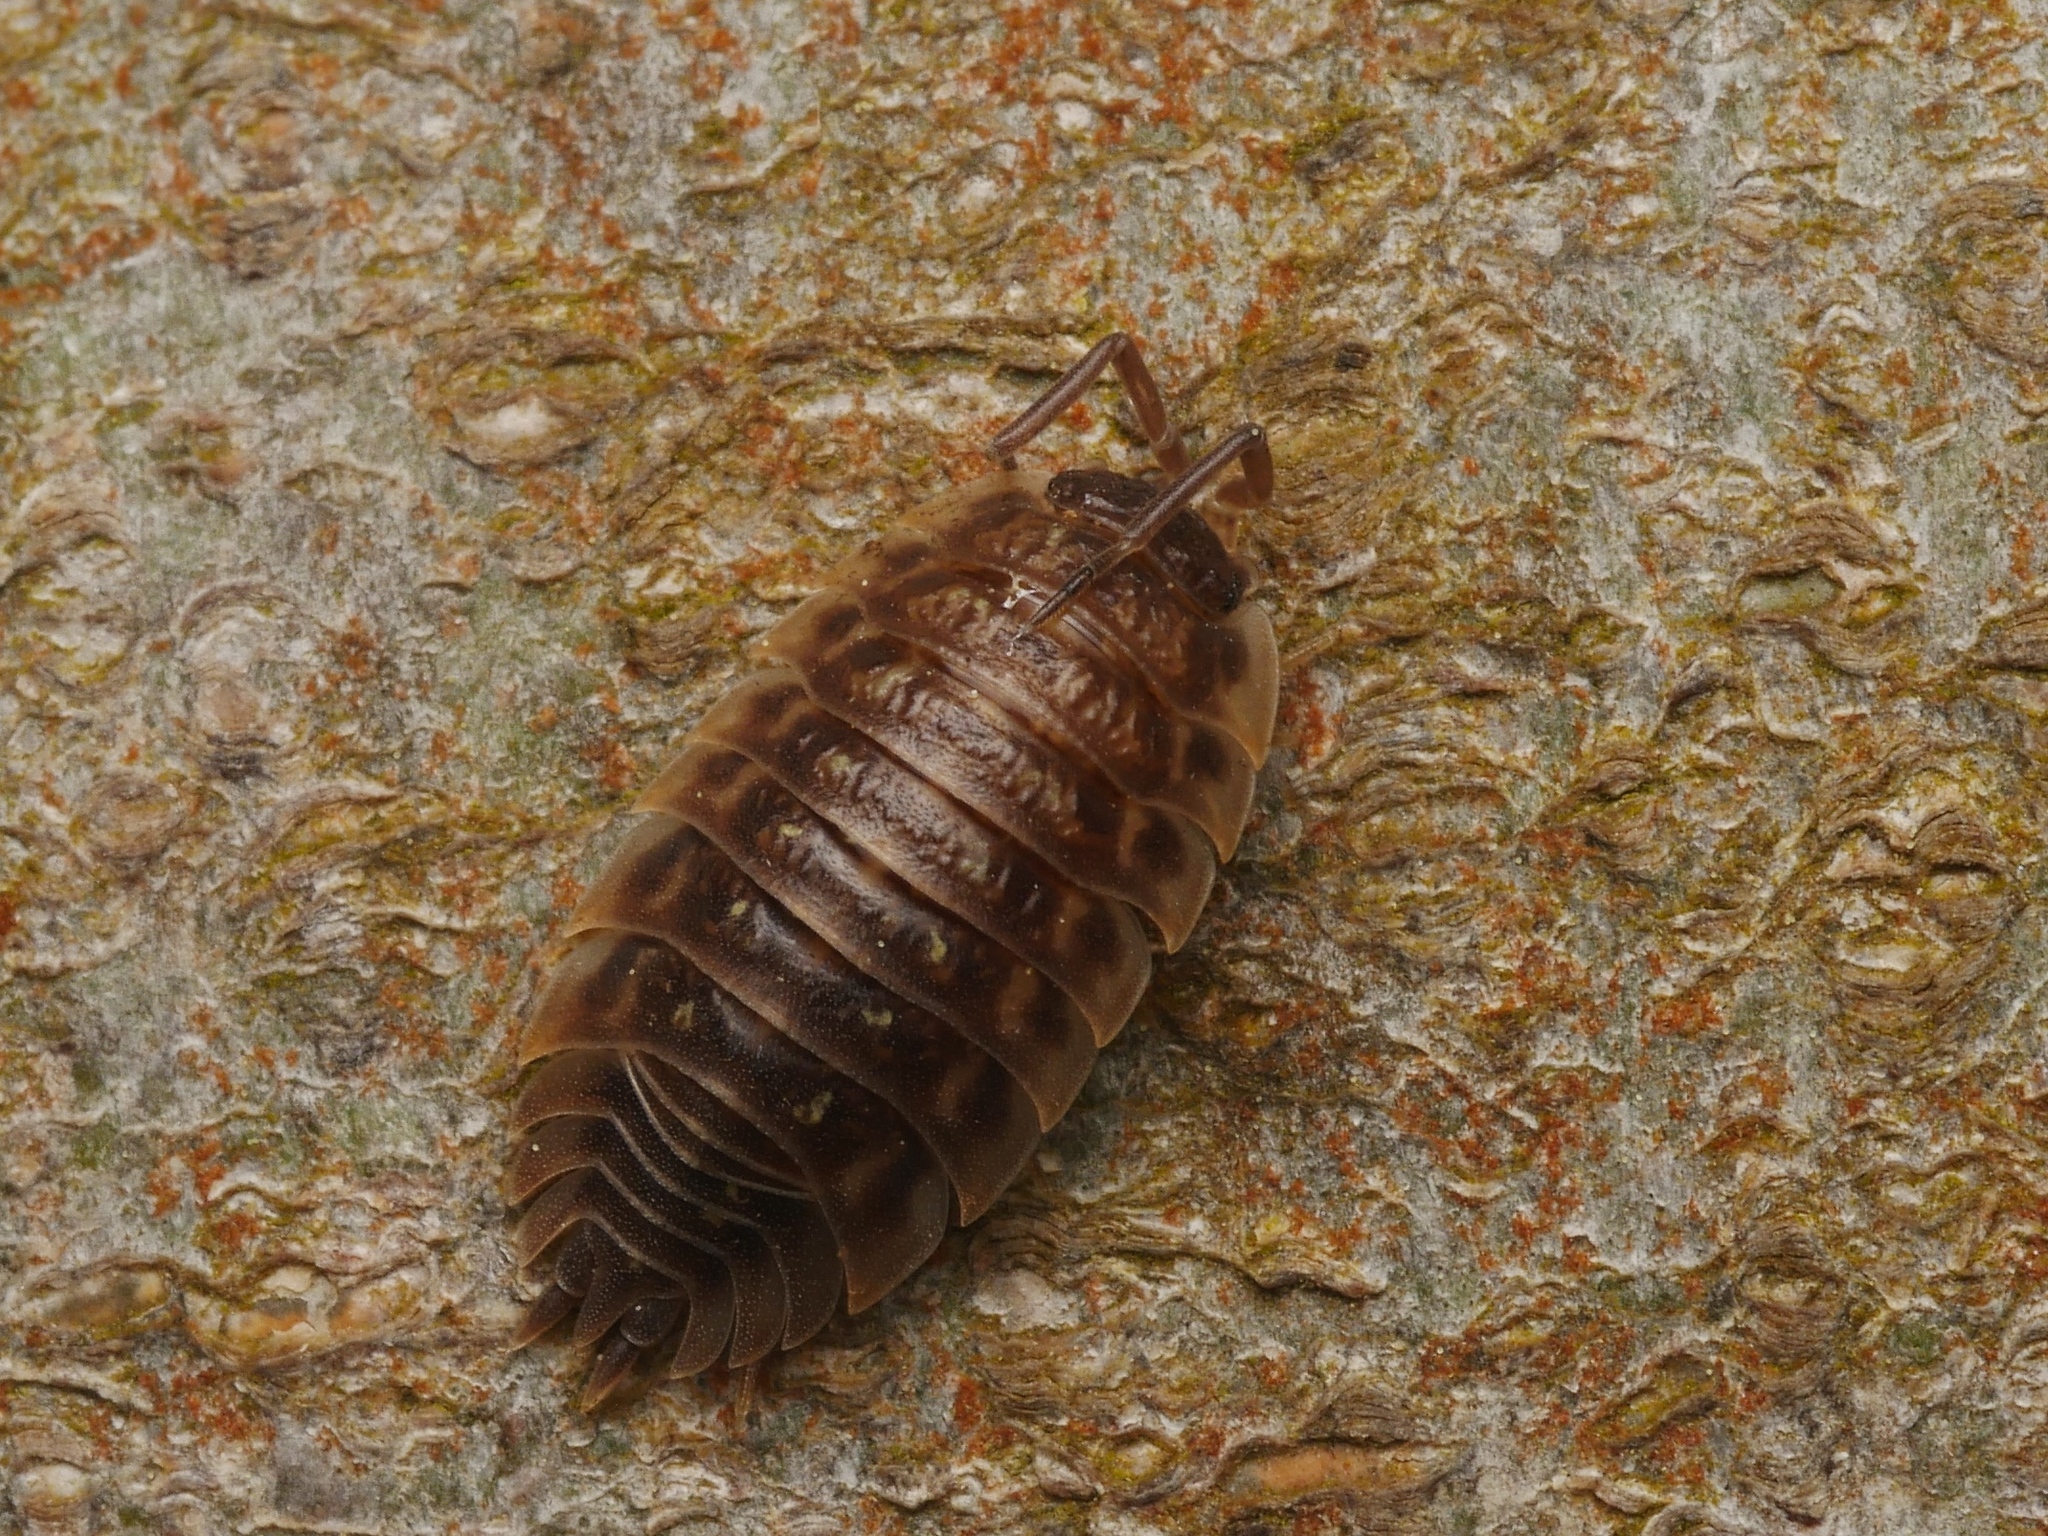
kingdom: Animalia
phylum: Arthropoda
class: Malacostraca
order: Isopoda
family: Oniscidae
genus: Oniscus
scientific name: Oniscus asellus
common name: Common shiny woodlouse
